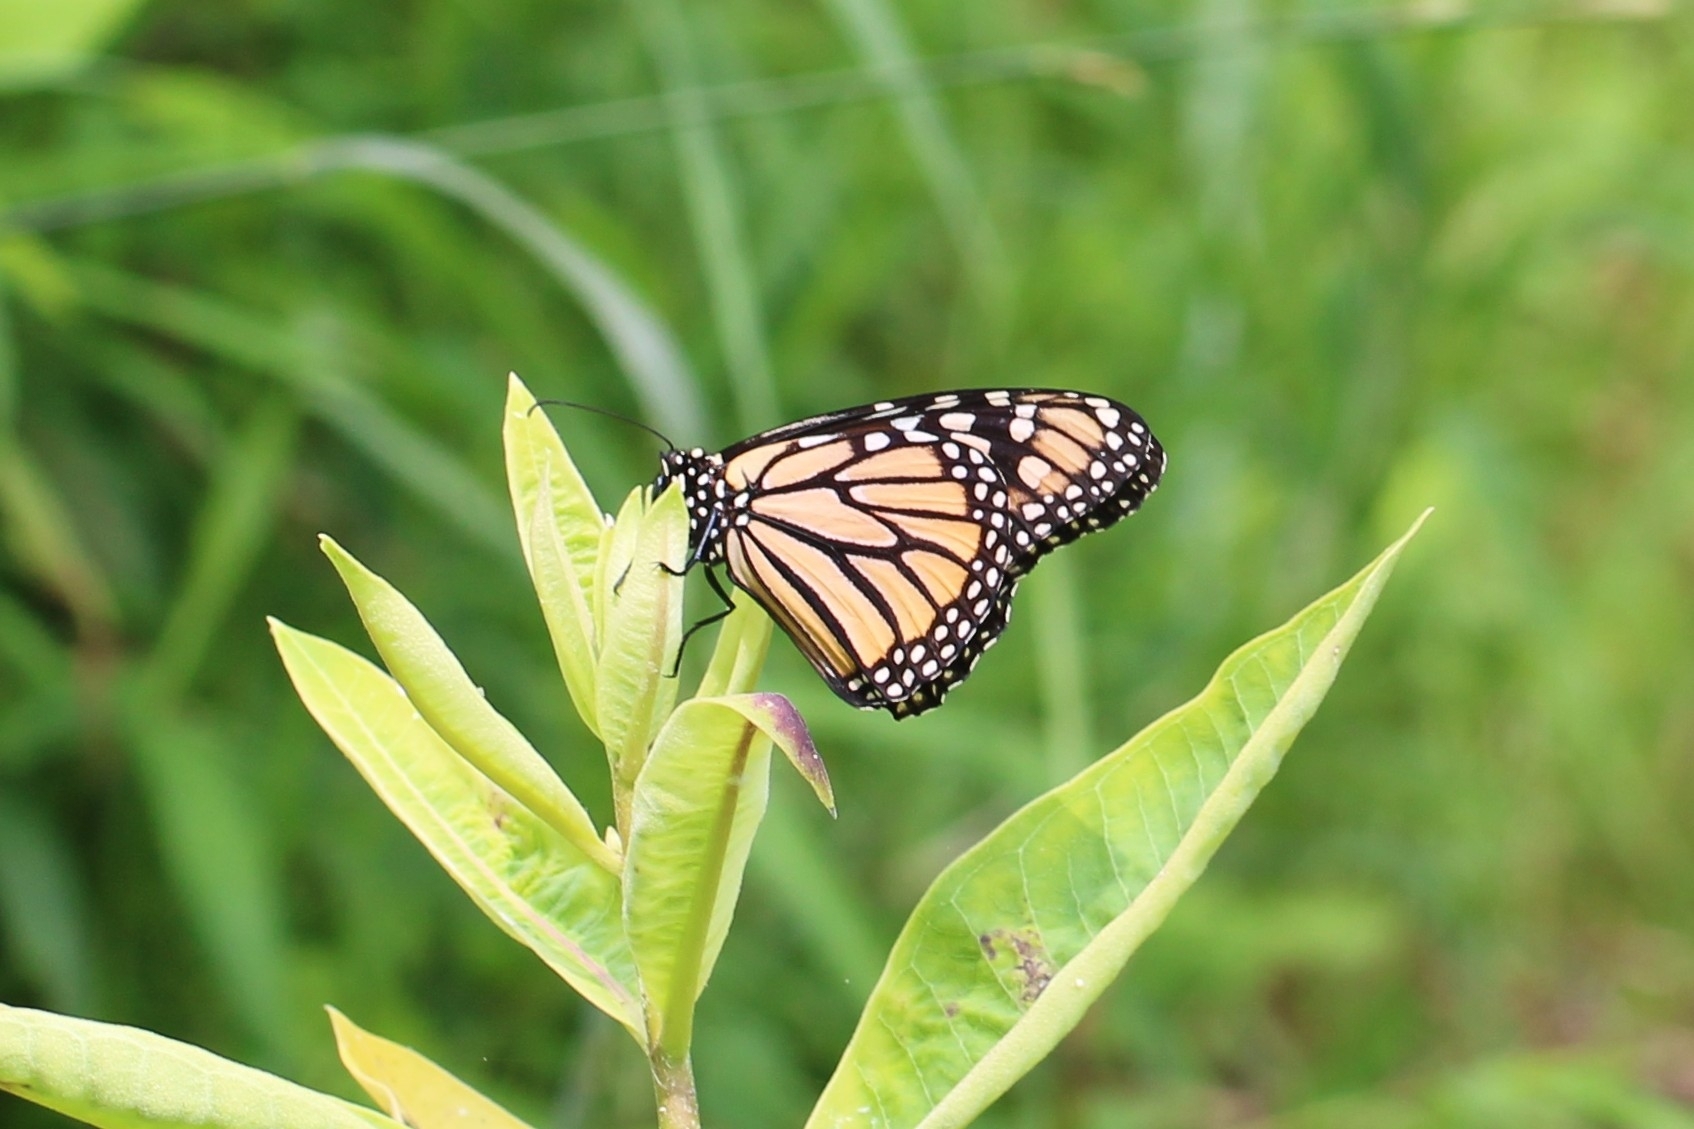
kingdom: Animalia
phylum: Arthropoda
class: Insecta
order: Lepidoptera
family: Nymphalidae
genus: Danaus
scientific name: Danaus plexippus
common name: Monarch
